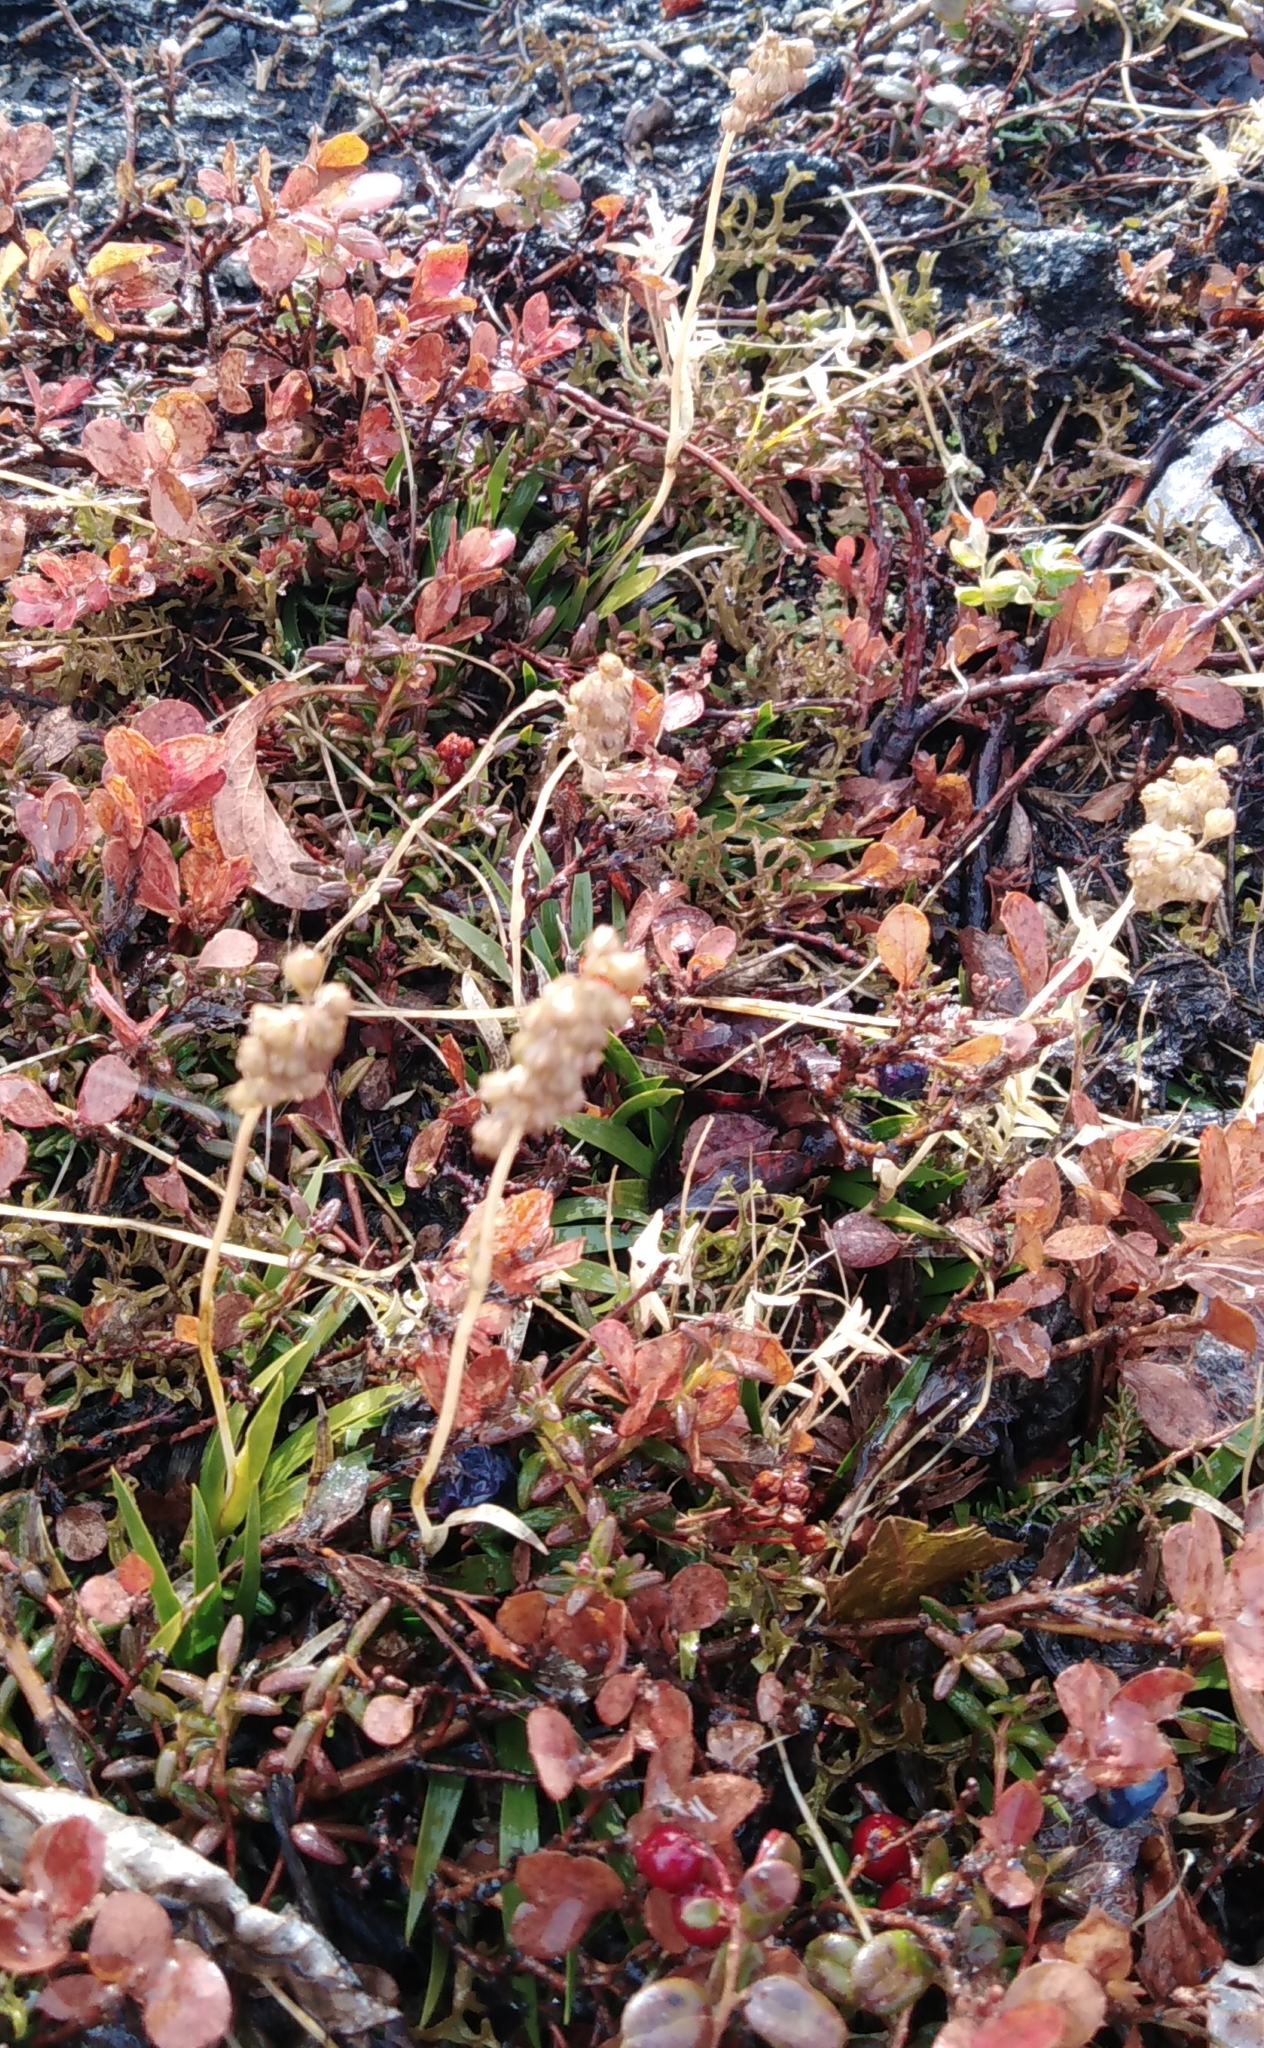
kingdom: Plantae
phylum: Tracheophyta
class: Liliopsida
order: Alismatales
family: Tofieldiaceae
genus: Tofieldia
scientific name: Tofieldia coccinea
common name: Northern false asphodel
